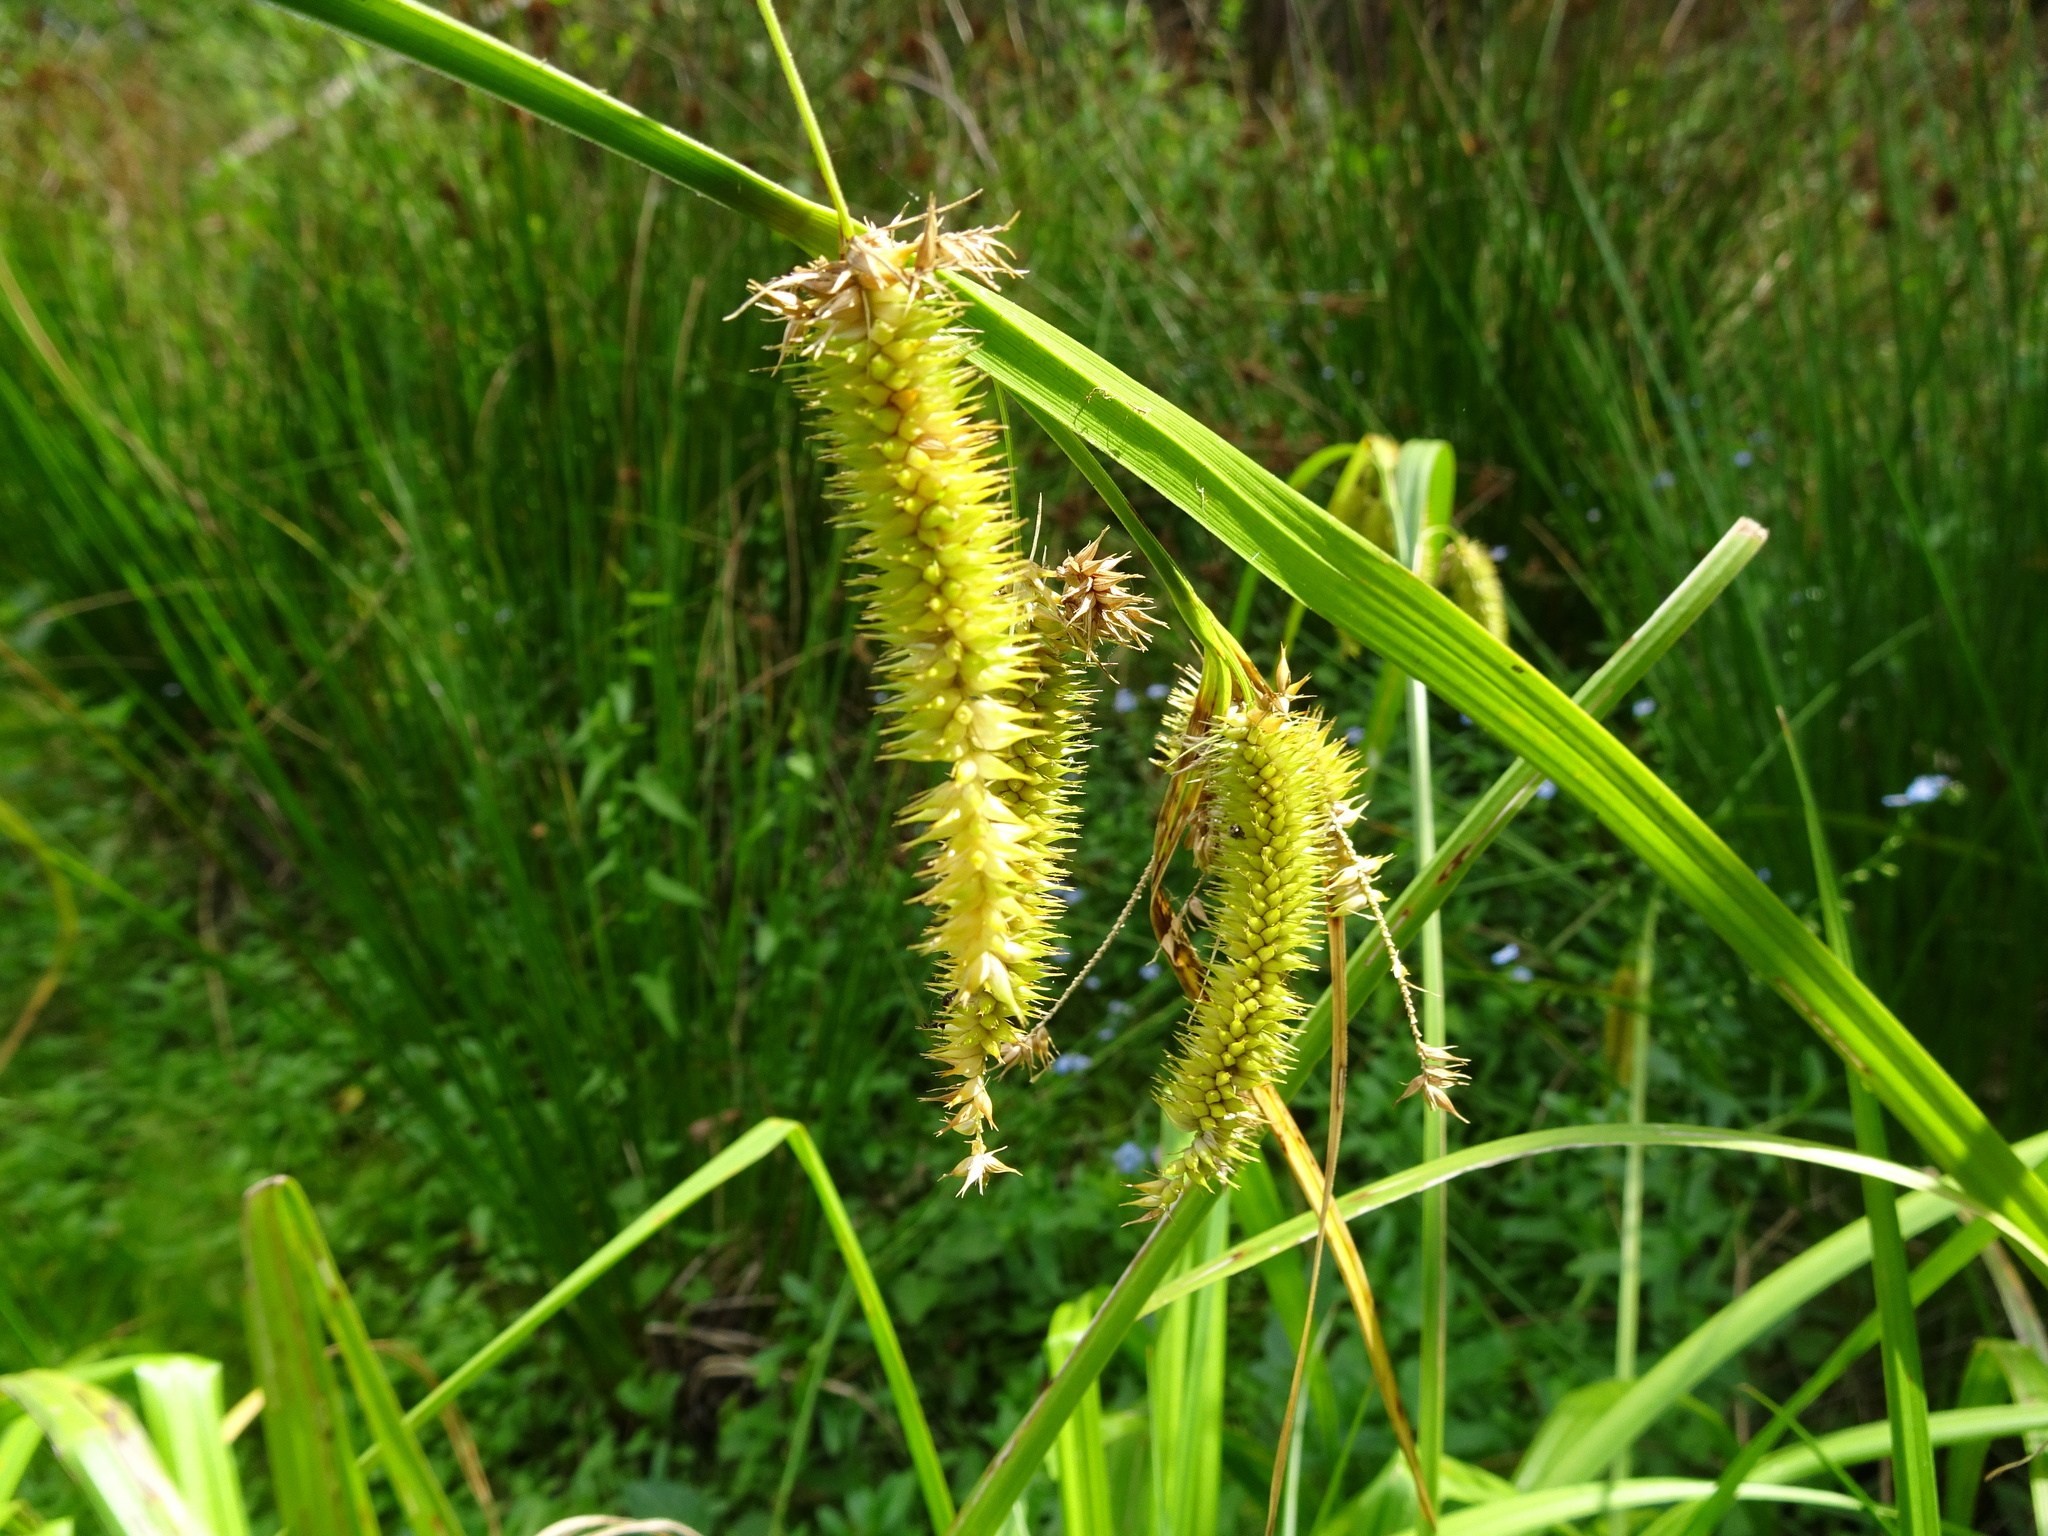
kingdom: Plantae
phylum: Tracheophyta
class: Liliopsida
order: Poales
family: Cyperaceae
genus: Carex
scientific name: Carex pseudocyperus
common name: Cyperus sedge
